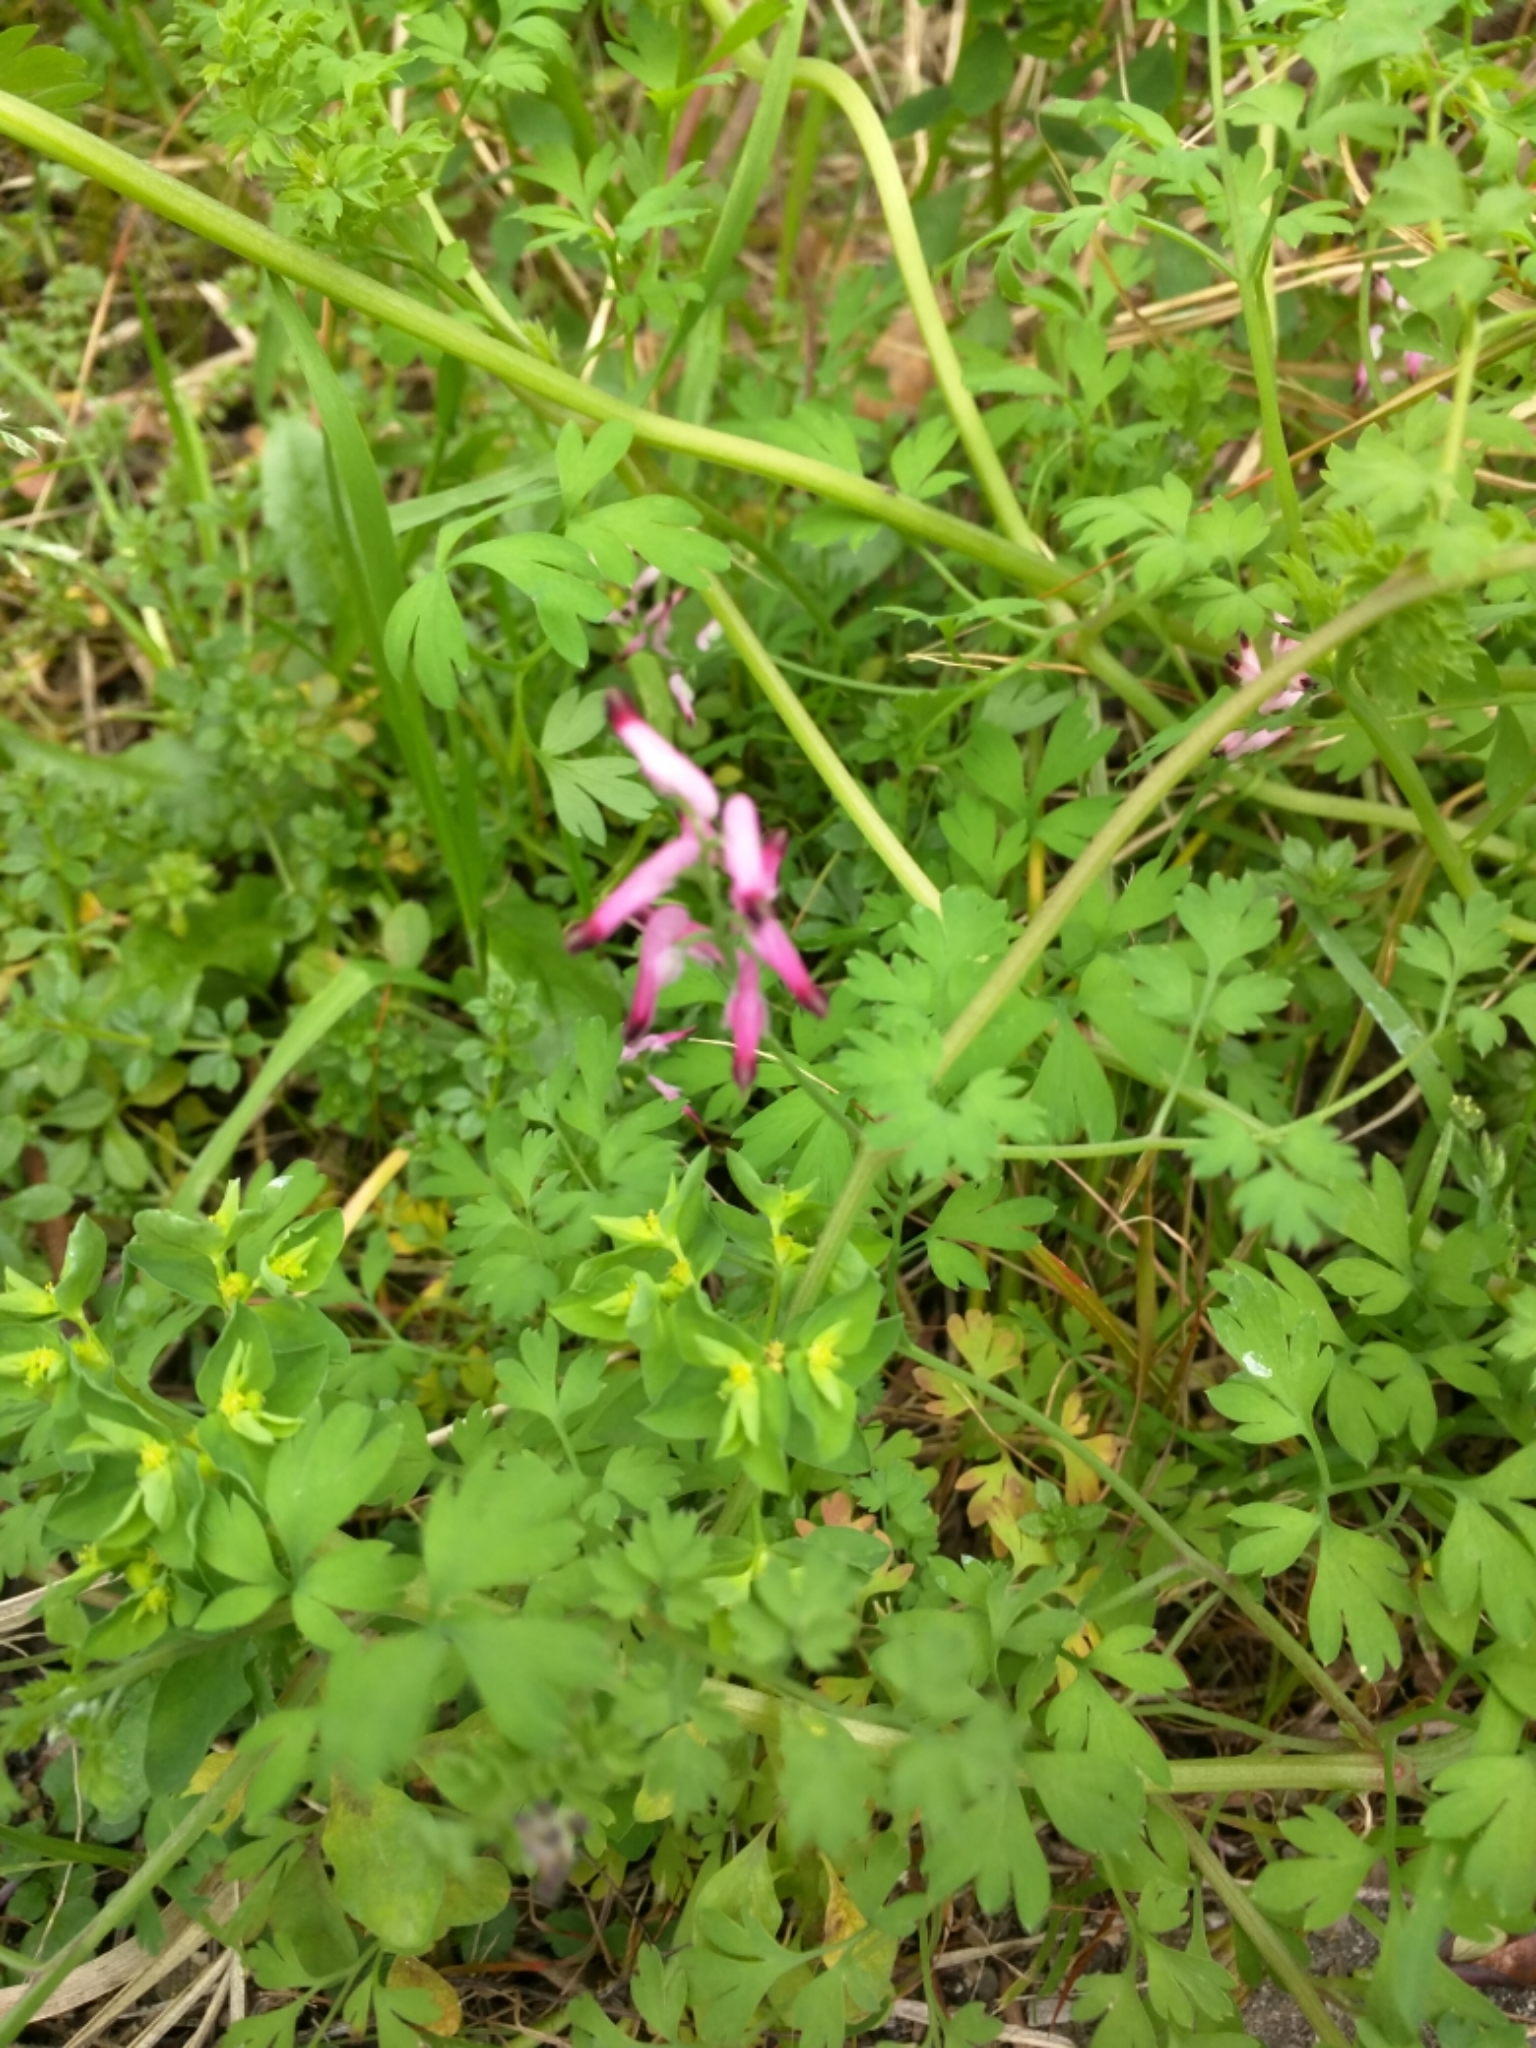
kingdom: Plantae
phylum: Tracheophyta
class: Magnoliopsida
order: Ranunculales
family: Papaveraceae
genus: Fumaria
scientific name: Fumaria muralis
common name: Common ramping-fumitory
